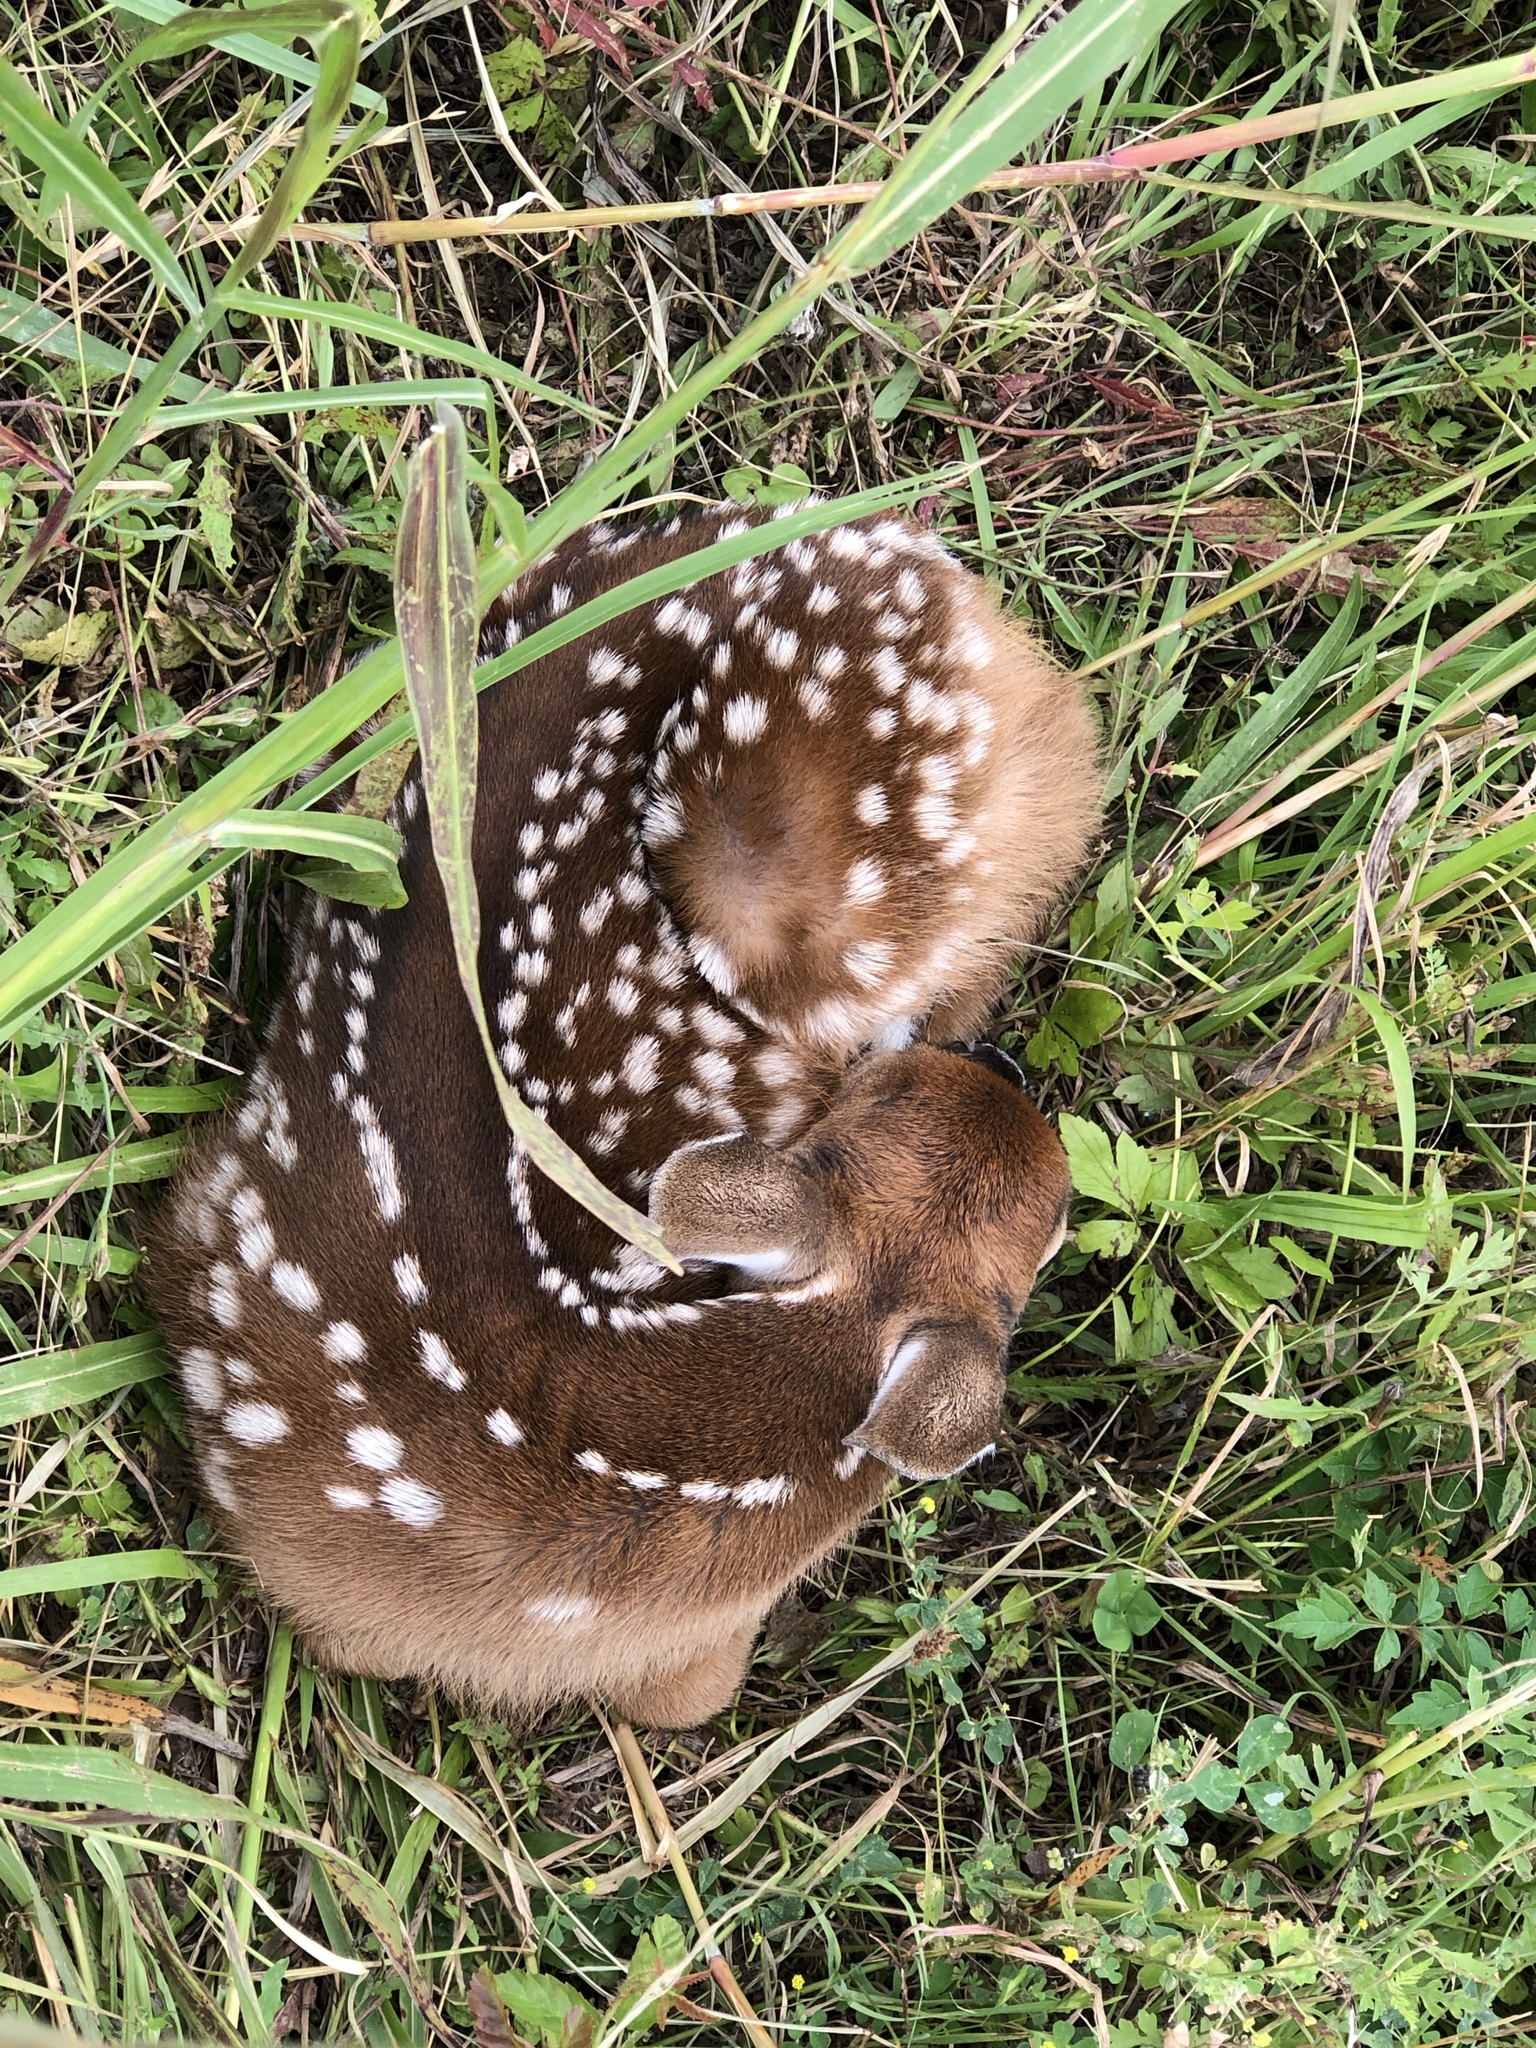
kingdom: Animalia
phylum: Chordata
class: Mammalia
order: Artiodactyla
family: Cervidae
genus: Odocoileus
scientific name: Odocoileus virginianus
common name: White-tailed deer
